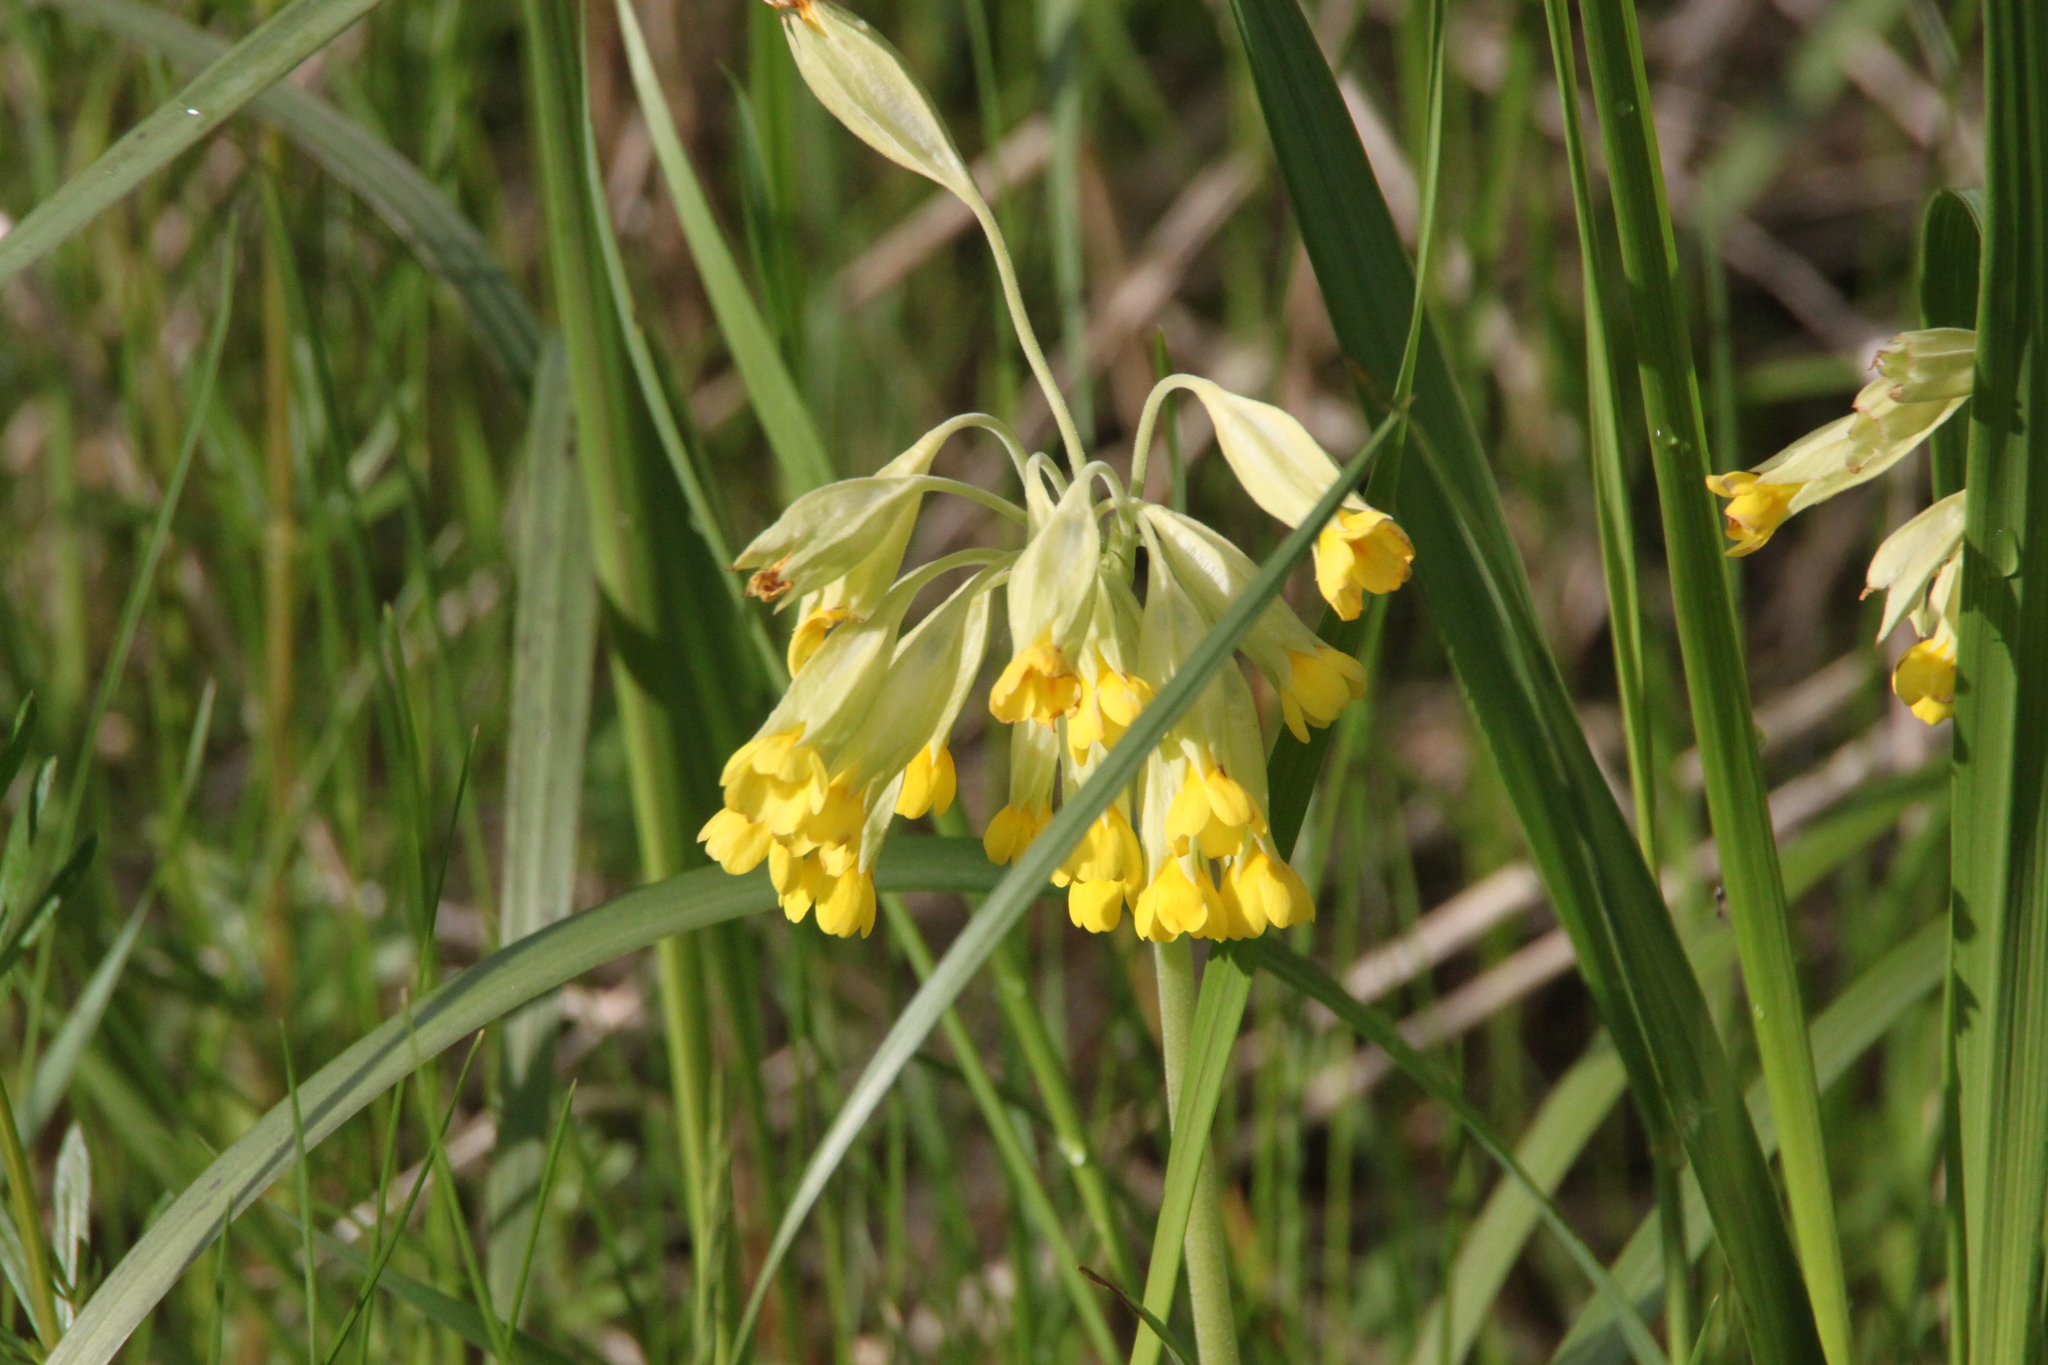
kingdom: Plantae
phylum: Tracheophyta
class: Magnoliopsida
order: Ericales
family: Primulaceae
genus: Primula
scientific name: Primula veris
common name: Cowslip
